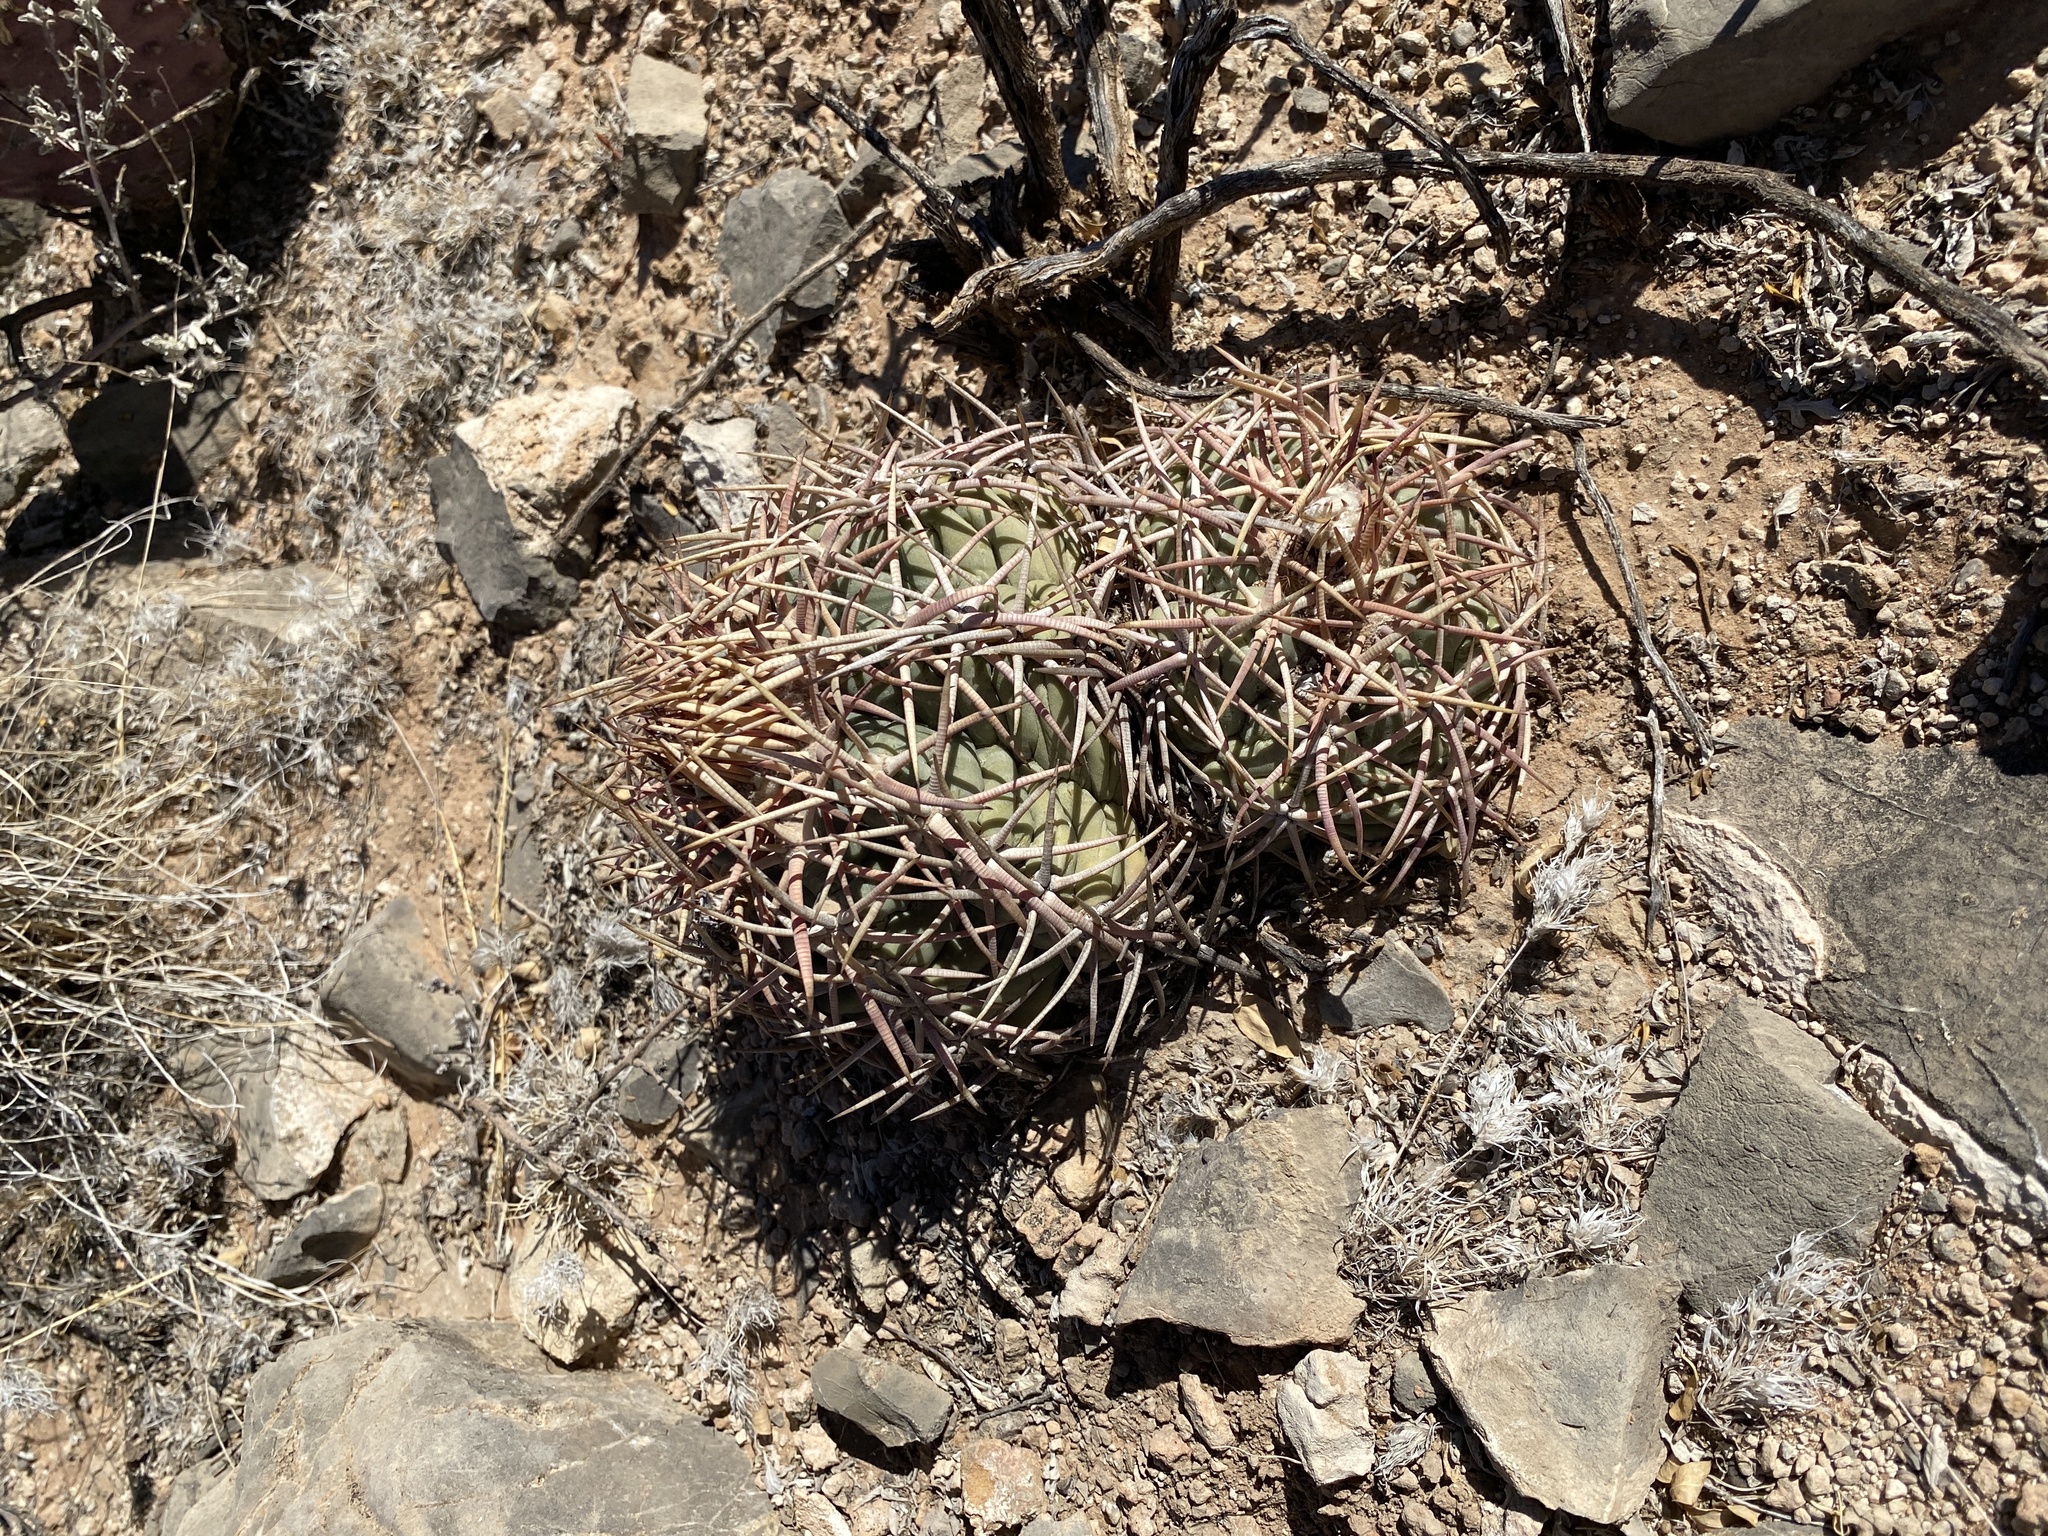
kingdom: Plantae
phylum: Tracheophyta
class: Magnoliopsida
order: Caryophyllales
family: Cactaceae
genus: Echinocactus
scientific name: Echinocactus horizonthalonius
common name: Devilshead
